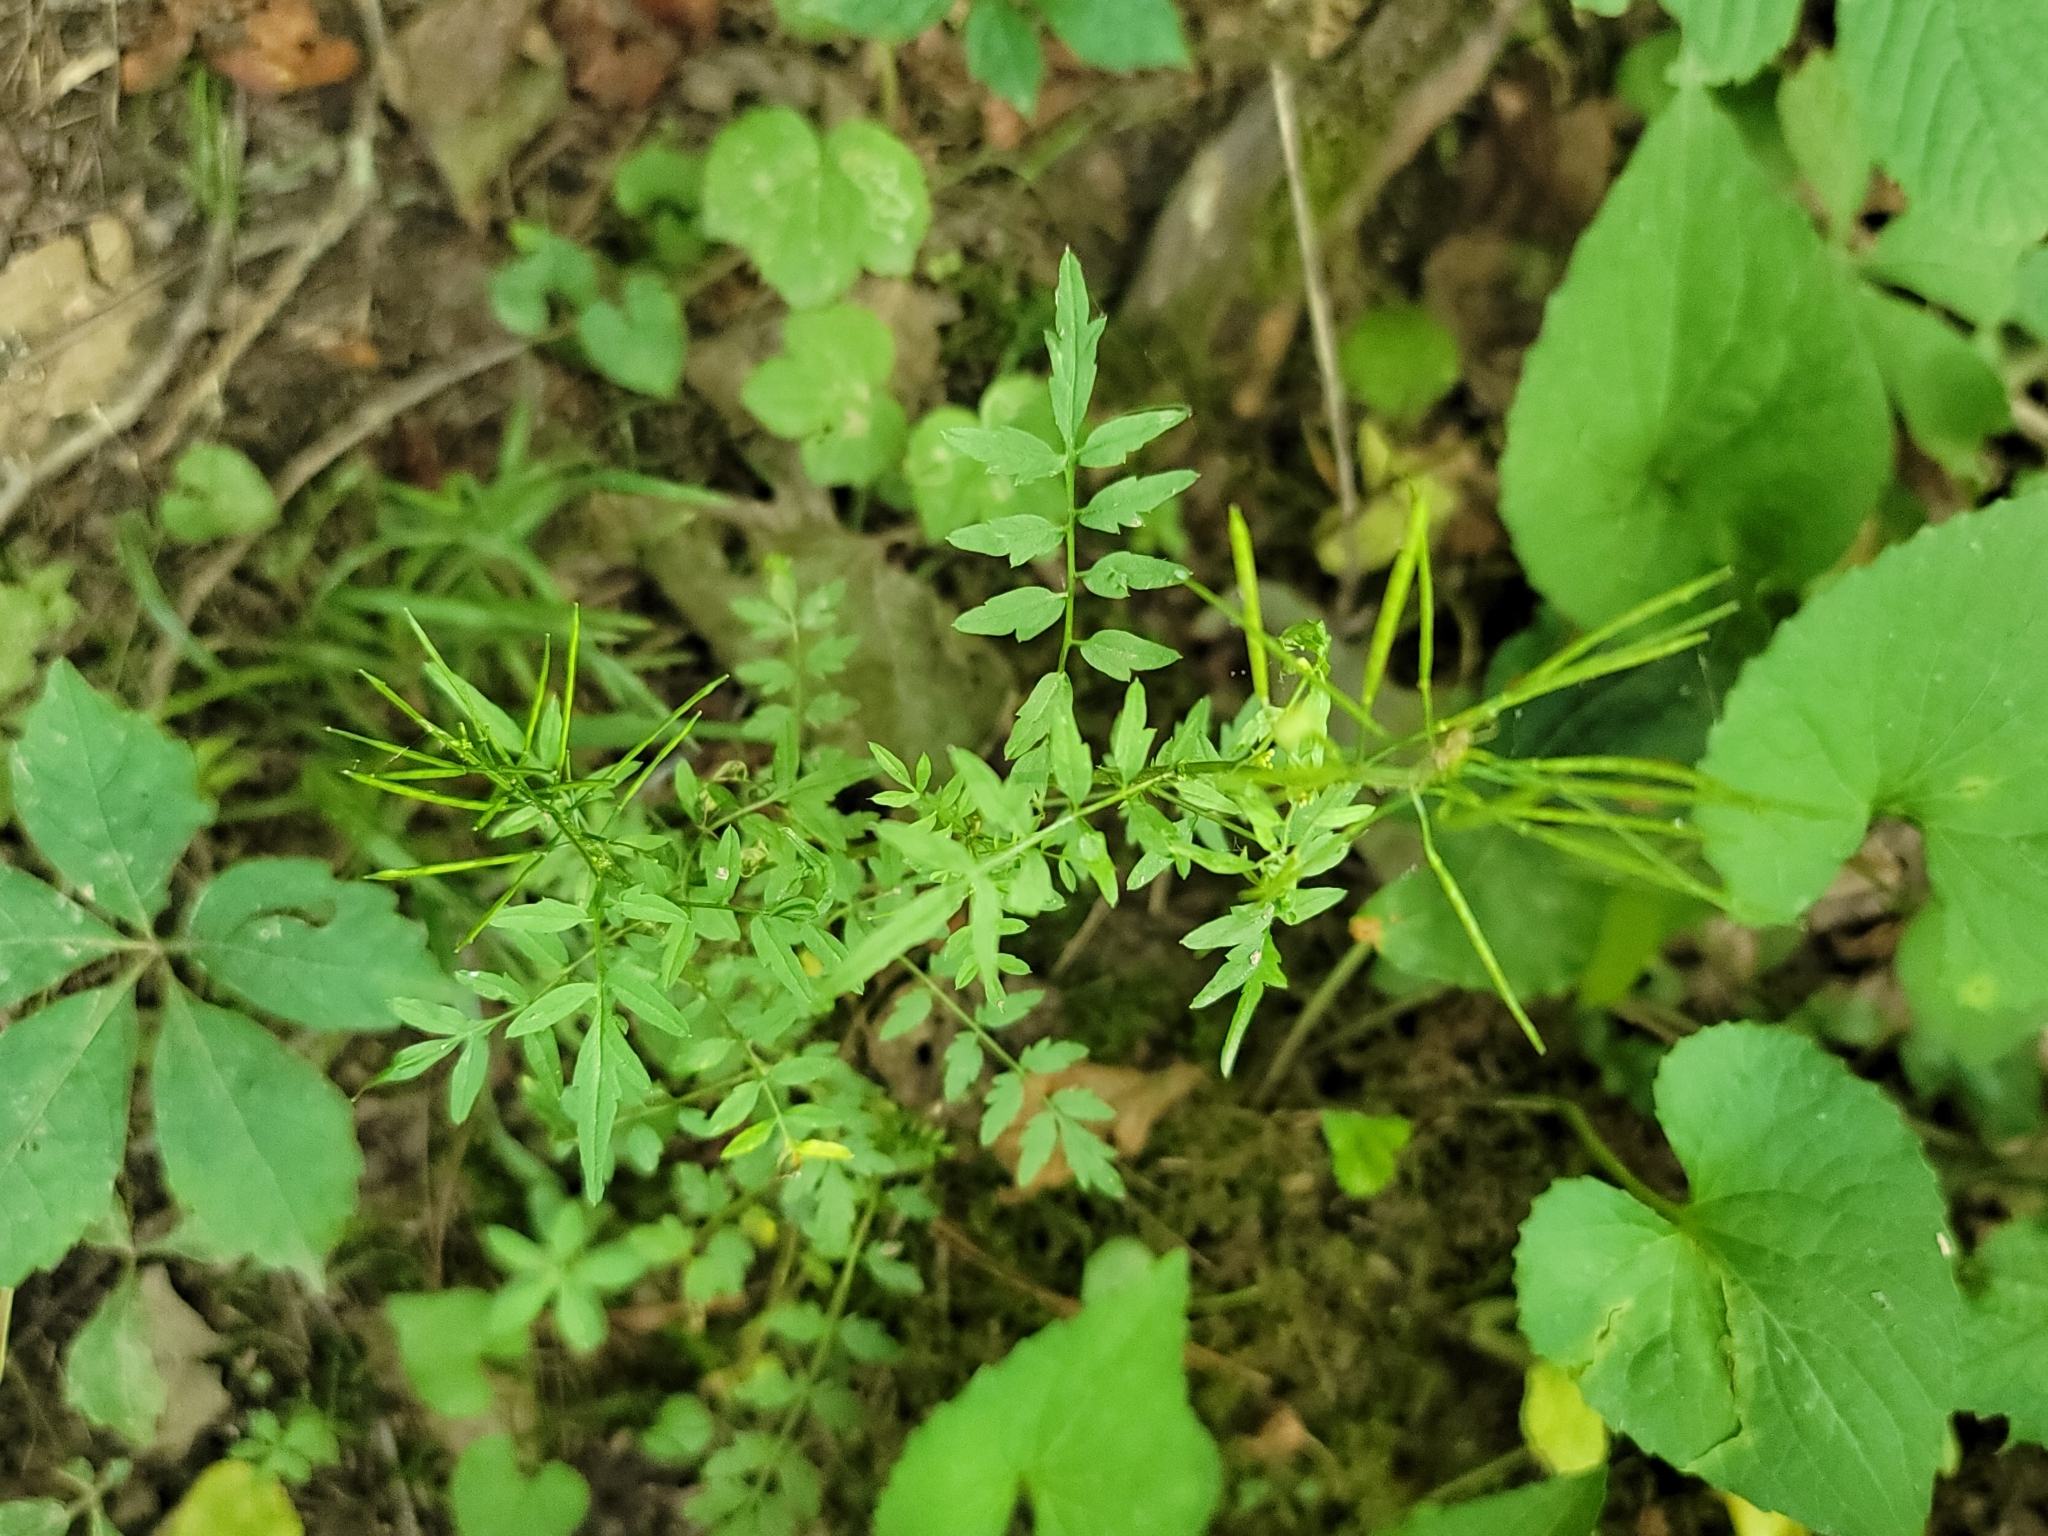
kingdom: Plantae
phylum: Tracheophyta
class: Magnoliopsida
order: Brassicales
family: Brassicaceae
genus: Cardamine
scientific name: Cardamine impatiens
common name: Narrow-leaved bitter-cress
